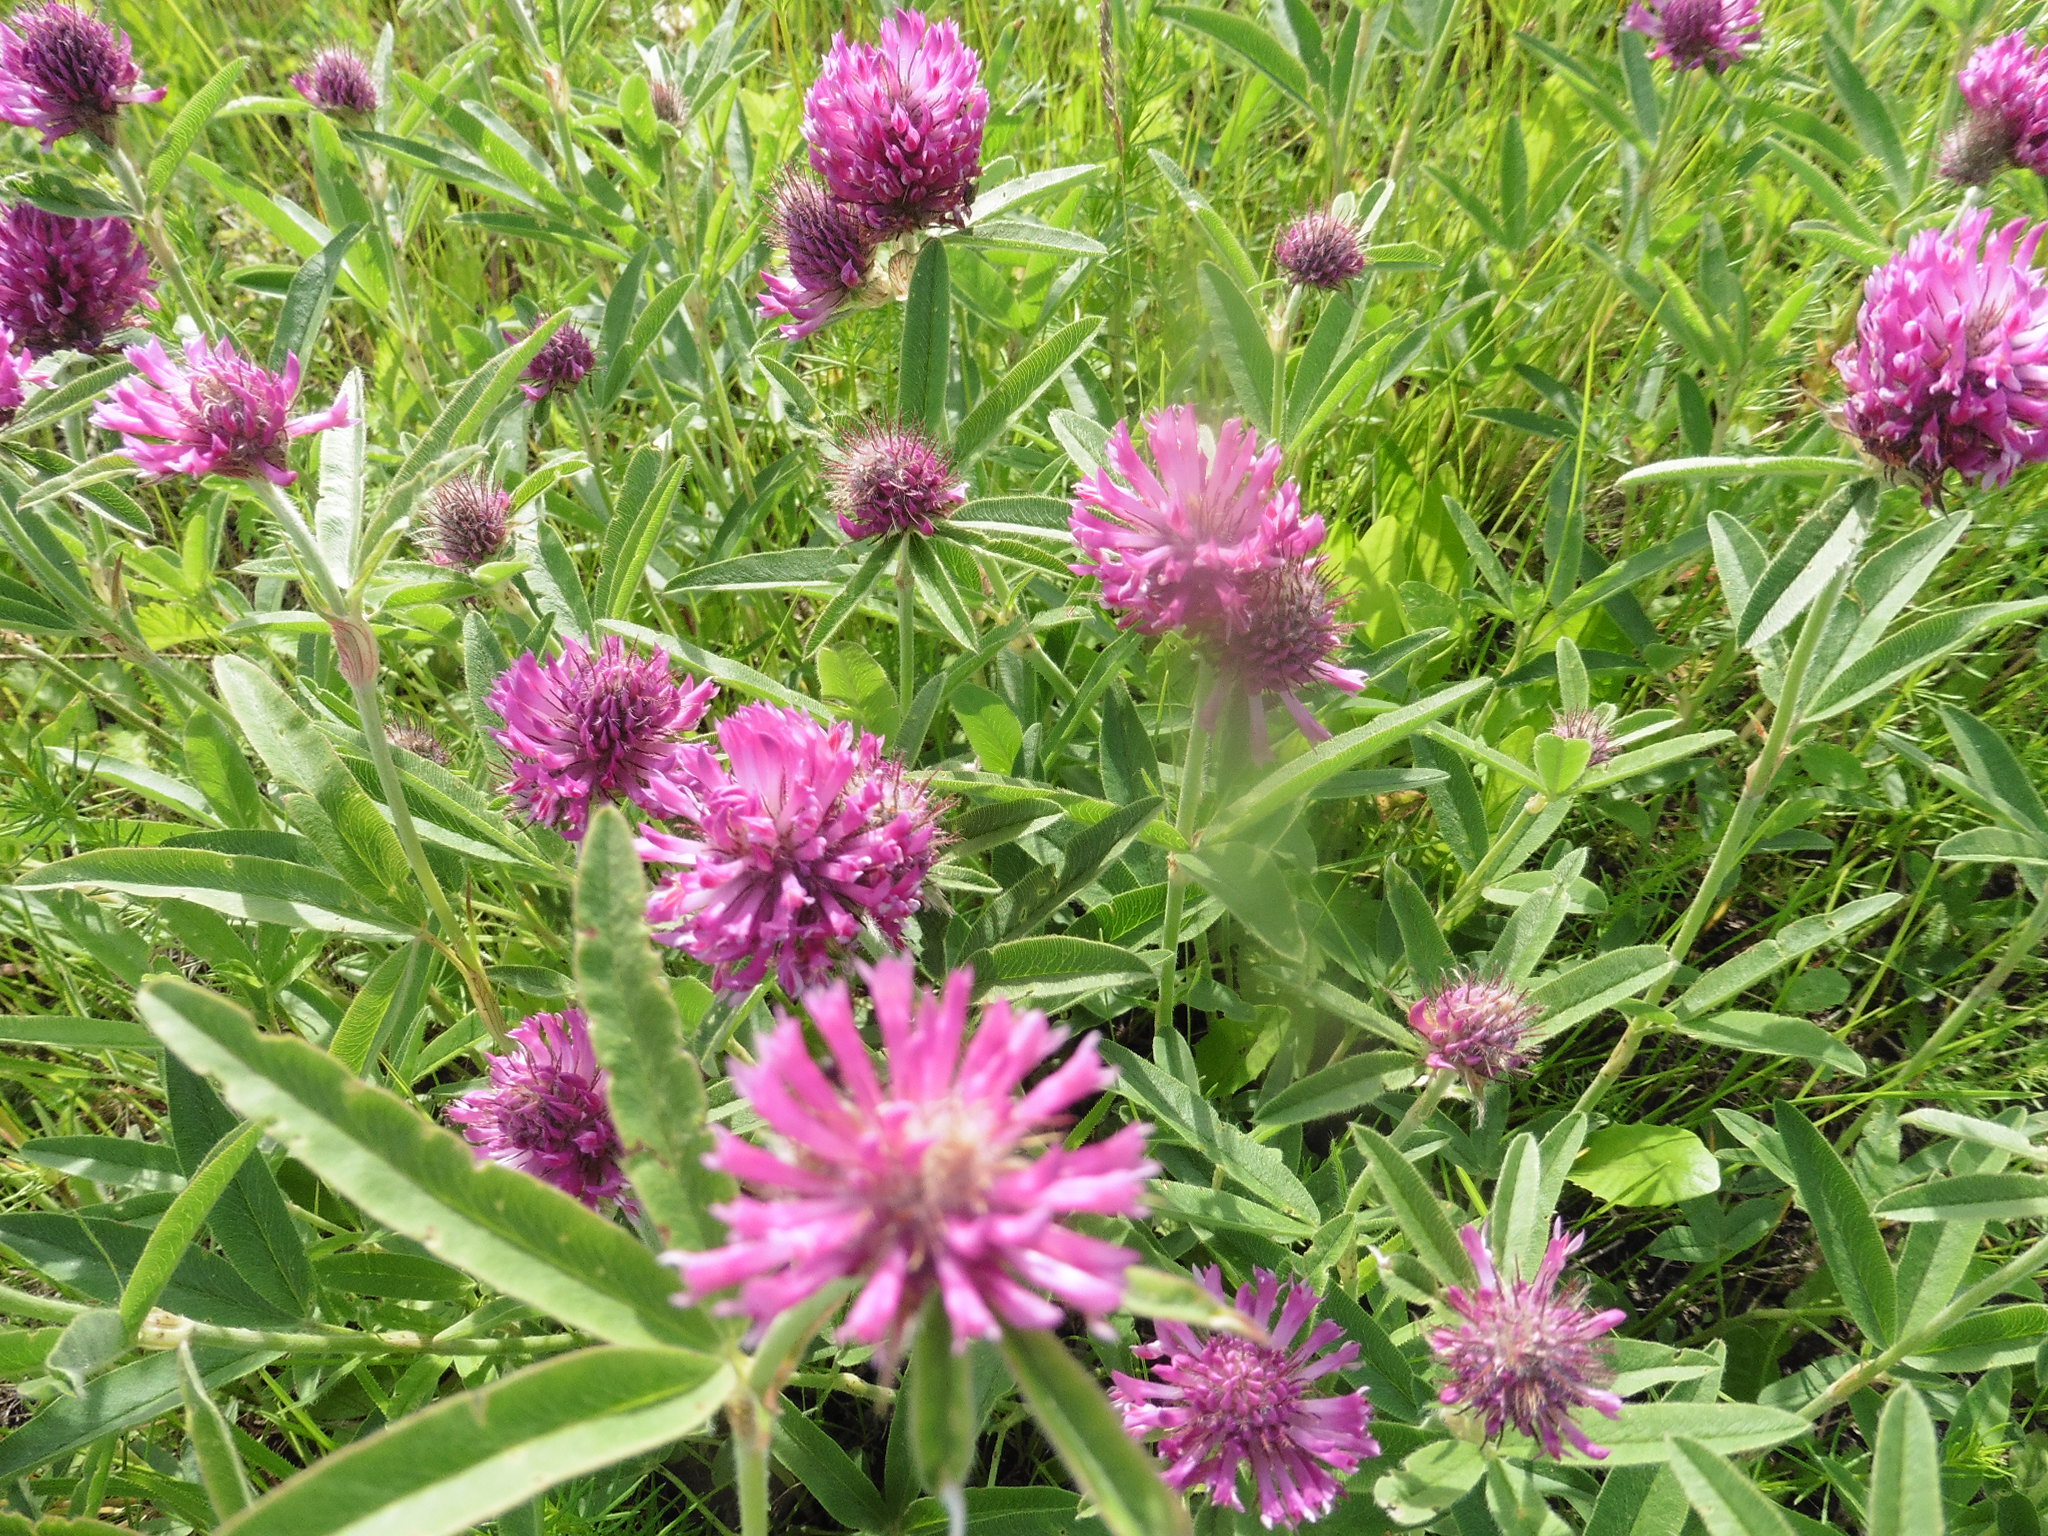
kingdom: Plantae
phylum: Tracheophyta
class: Magnoliopsida
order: Fabales
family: Fabaceae
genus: Trifolium
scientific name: Trifolium alpestre
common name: Owl-head clover
